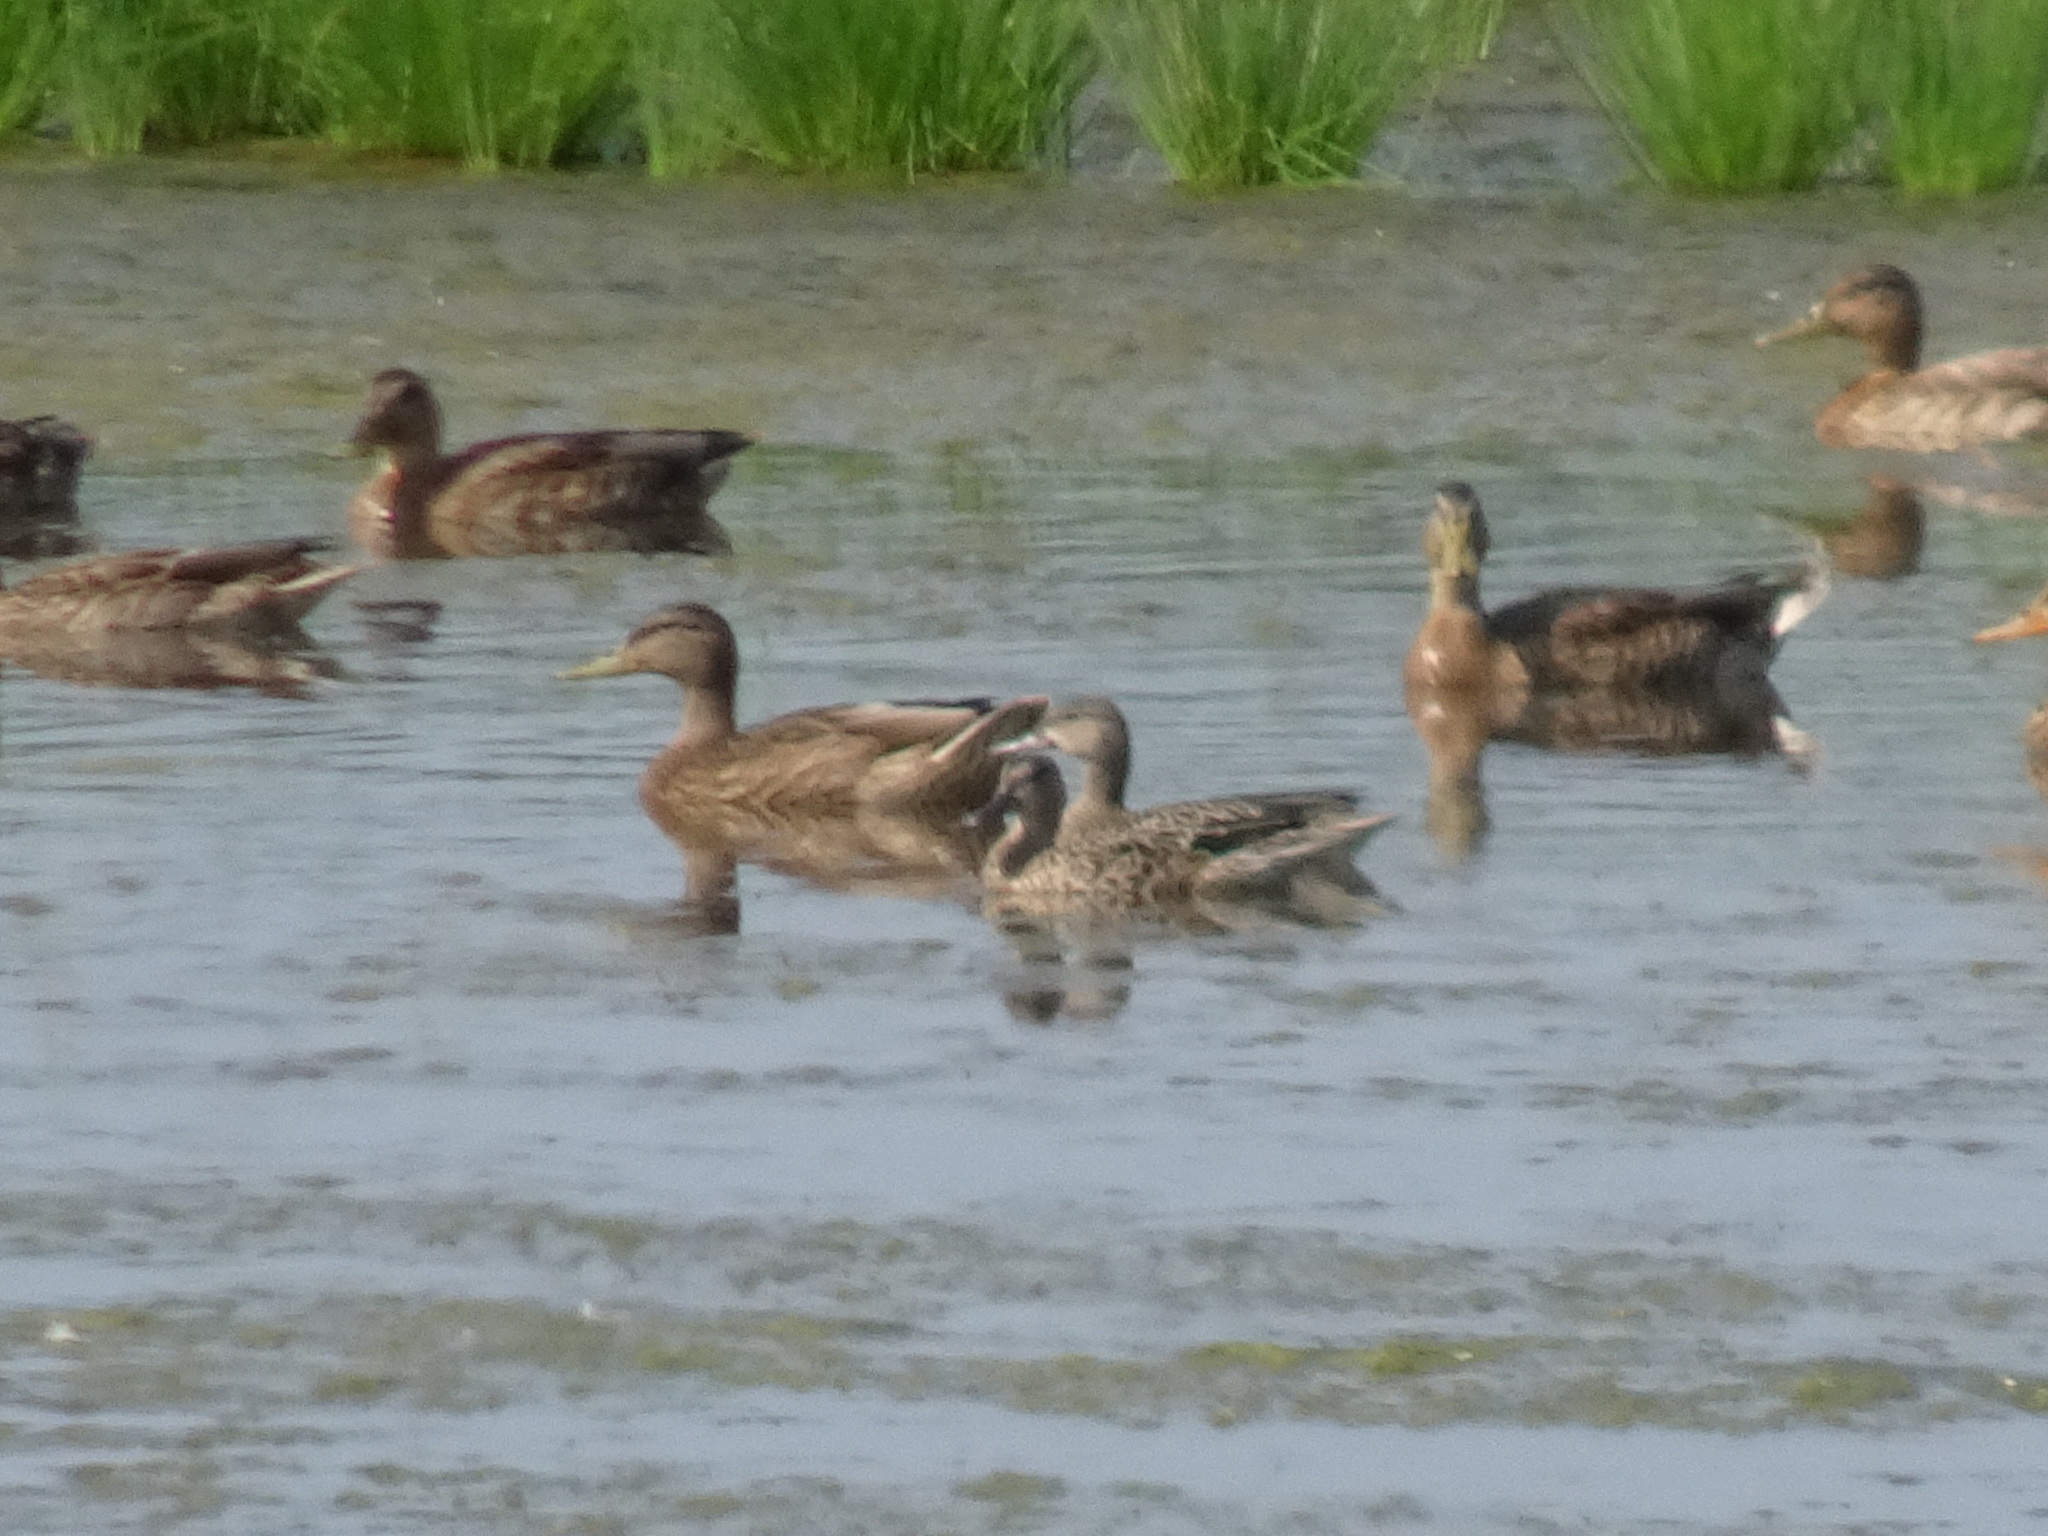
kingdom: Animalia
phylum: Chordata
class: Aves
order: Anseriformes
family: Anatidae
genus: Spatula
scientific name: Spatula discors
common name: Blue-winged teal
